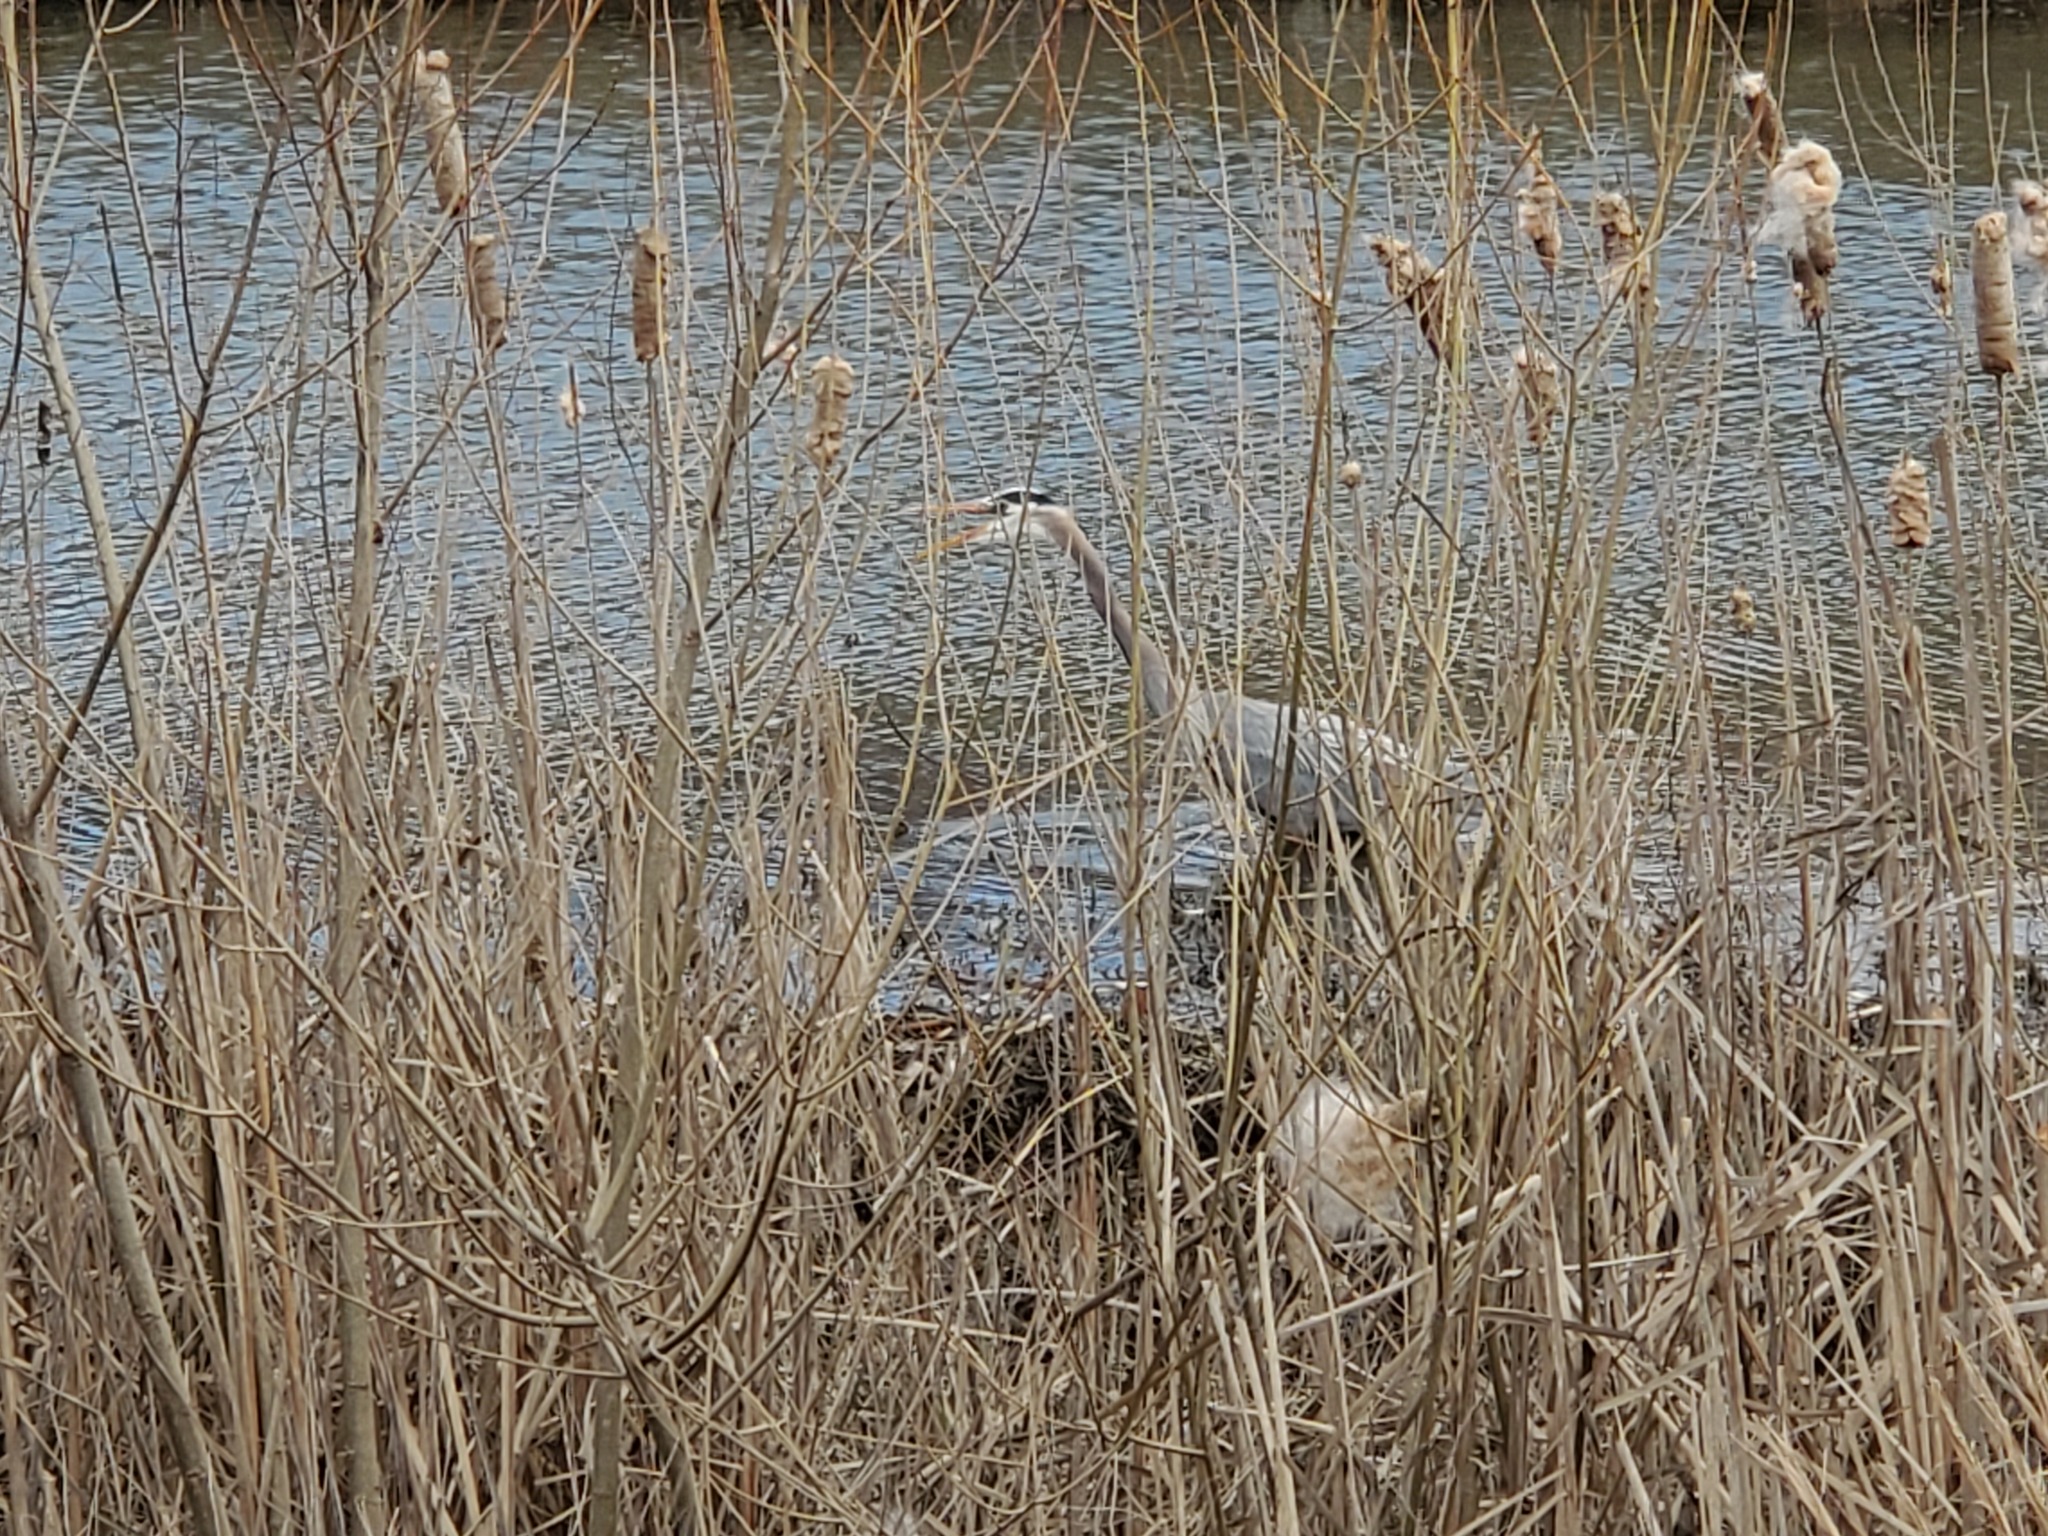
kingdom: Animalia
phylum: Chordata
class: Aves
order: Pelecaniformes
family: Ardeidae
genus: Ardea
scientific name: Ardea herodias
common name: Great blue heron
